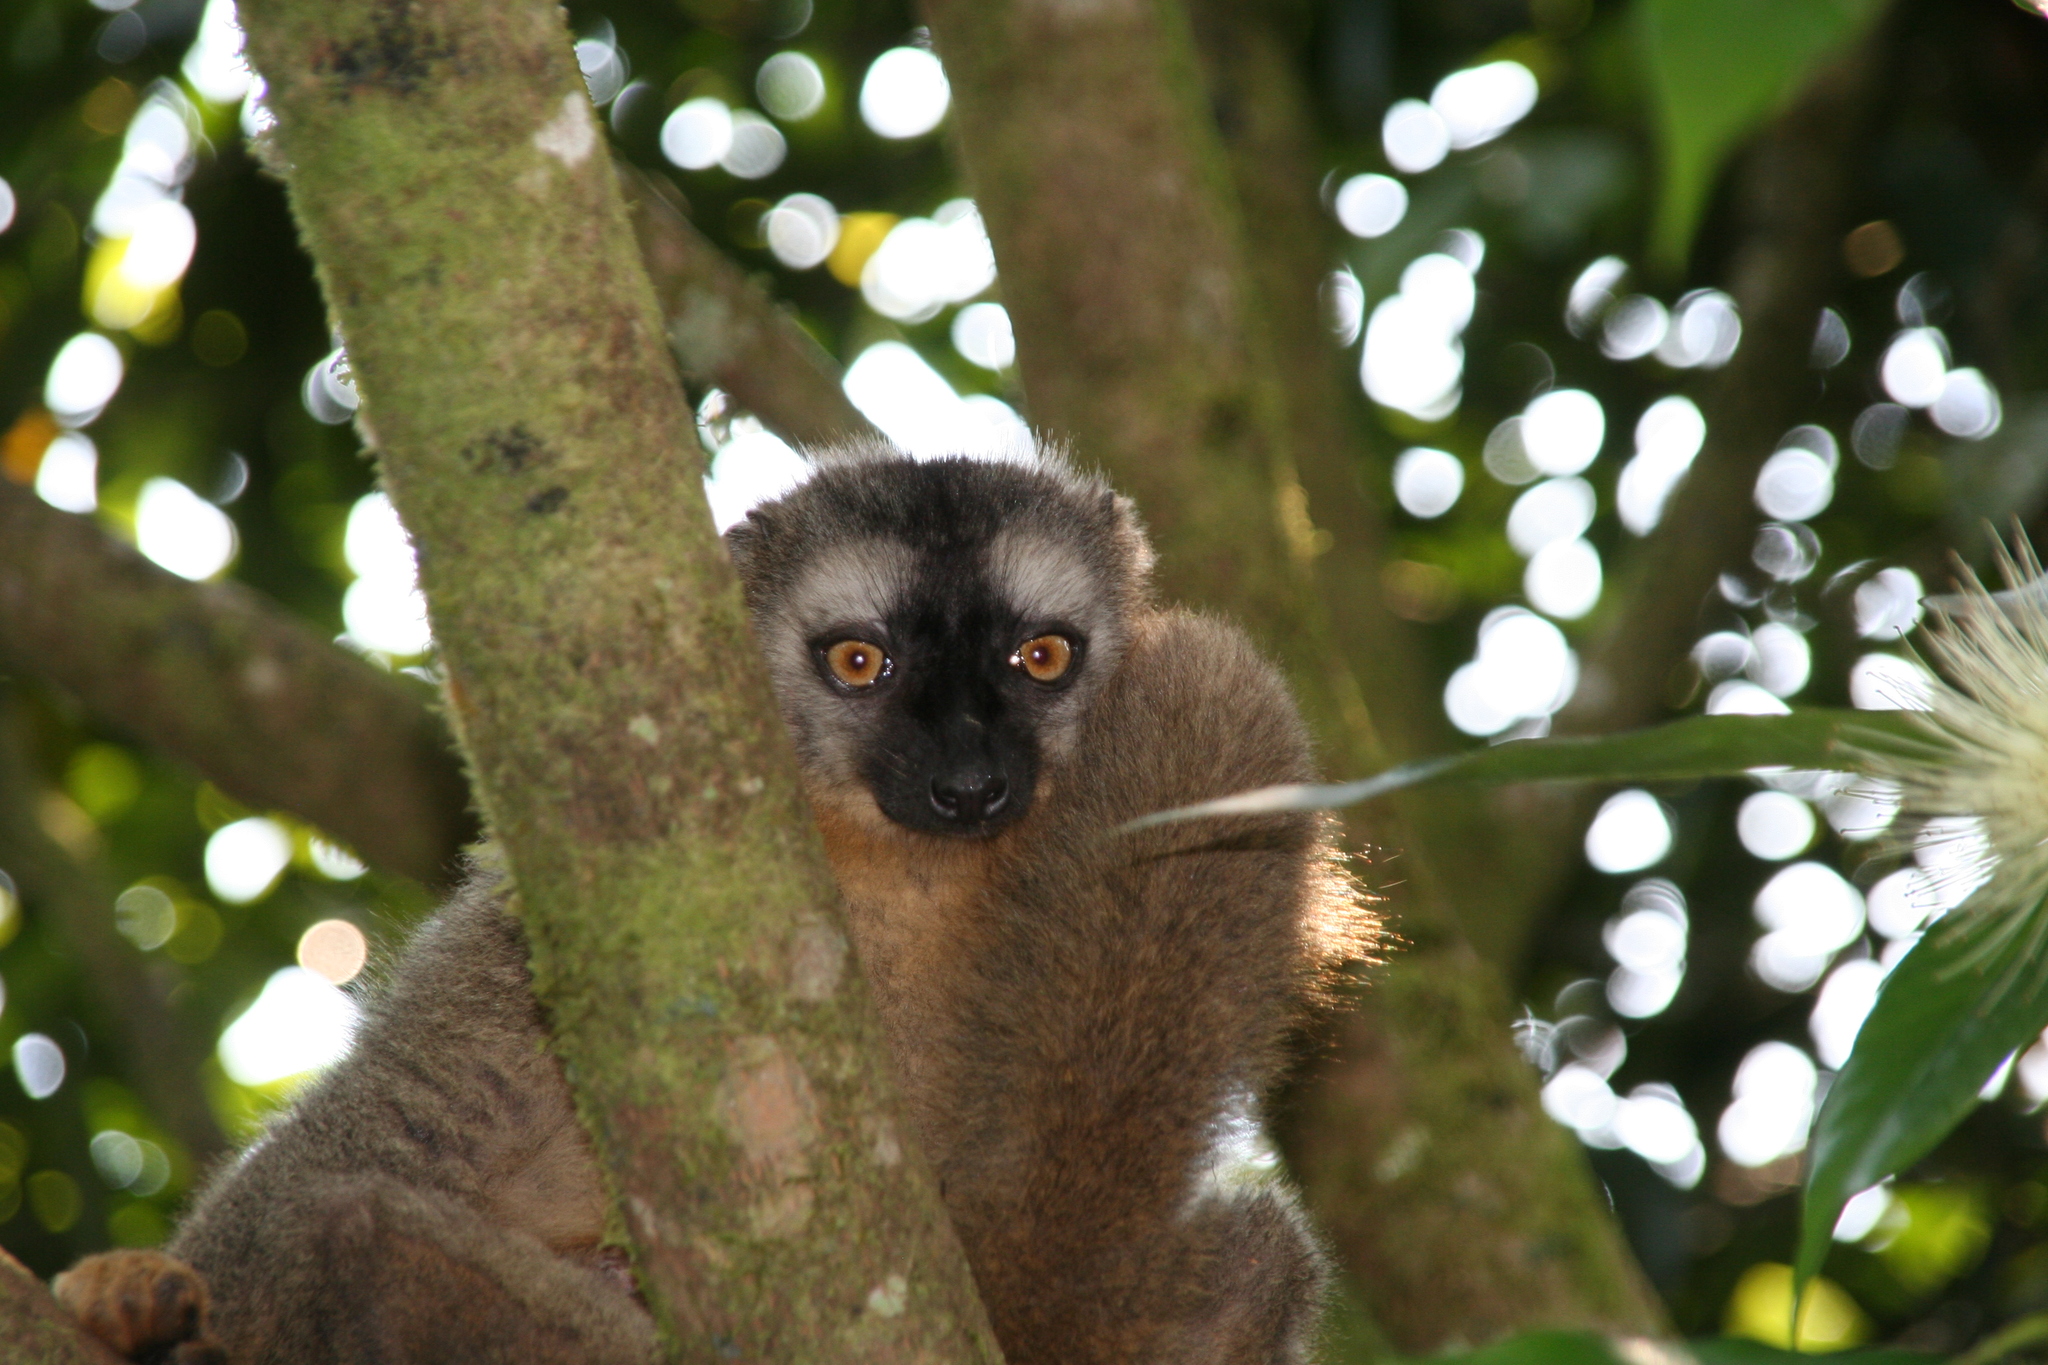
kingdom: Animalia
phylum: Chordata
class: Mammalia
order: Primates
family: Lemuridae
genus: Eulemur
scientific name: Eulemur rufifrons
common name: Red-fronted brown lemur
